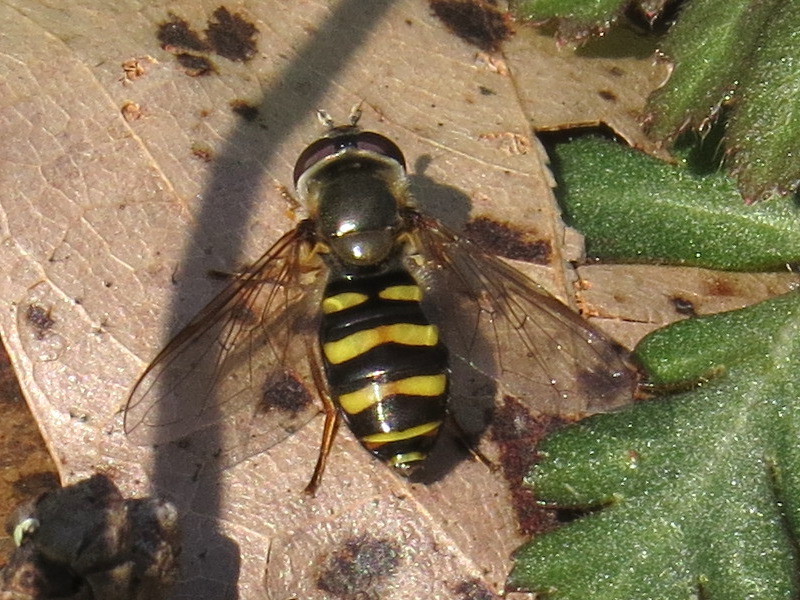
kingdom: Animalia
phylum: Arthropoda
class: Insecta
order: Diptera
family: Syrphidae
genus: Eupeodes
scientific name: Eupeodes
